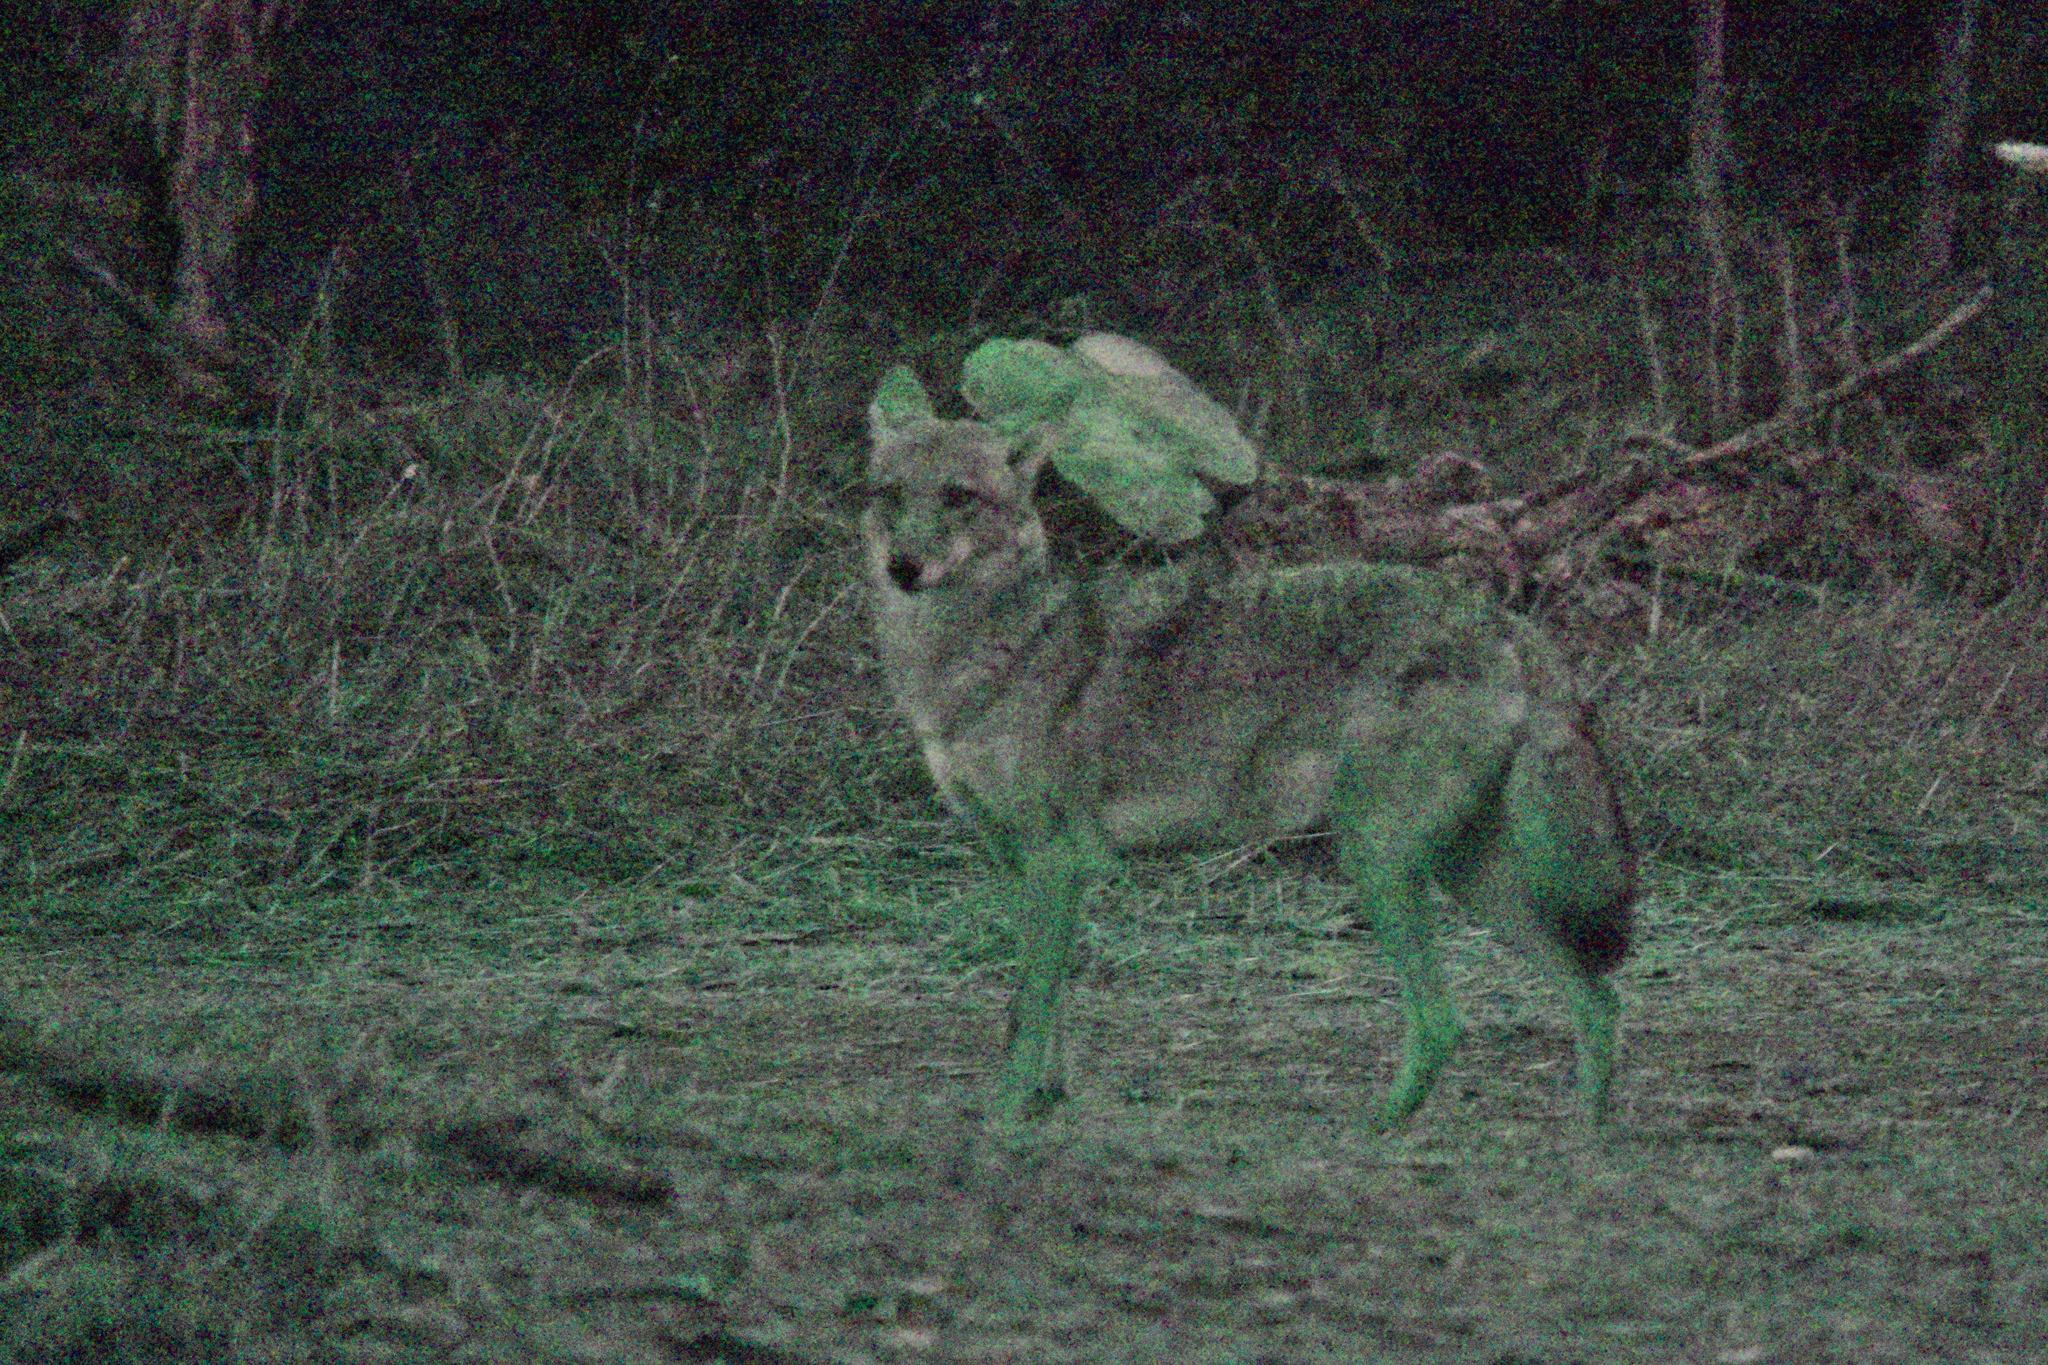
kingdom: Animalia
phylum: Chordata
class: Mammalia
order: Carnivora
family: Canidae
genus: Canis
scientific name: Canis latrans
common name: Coyote
